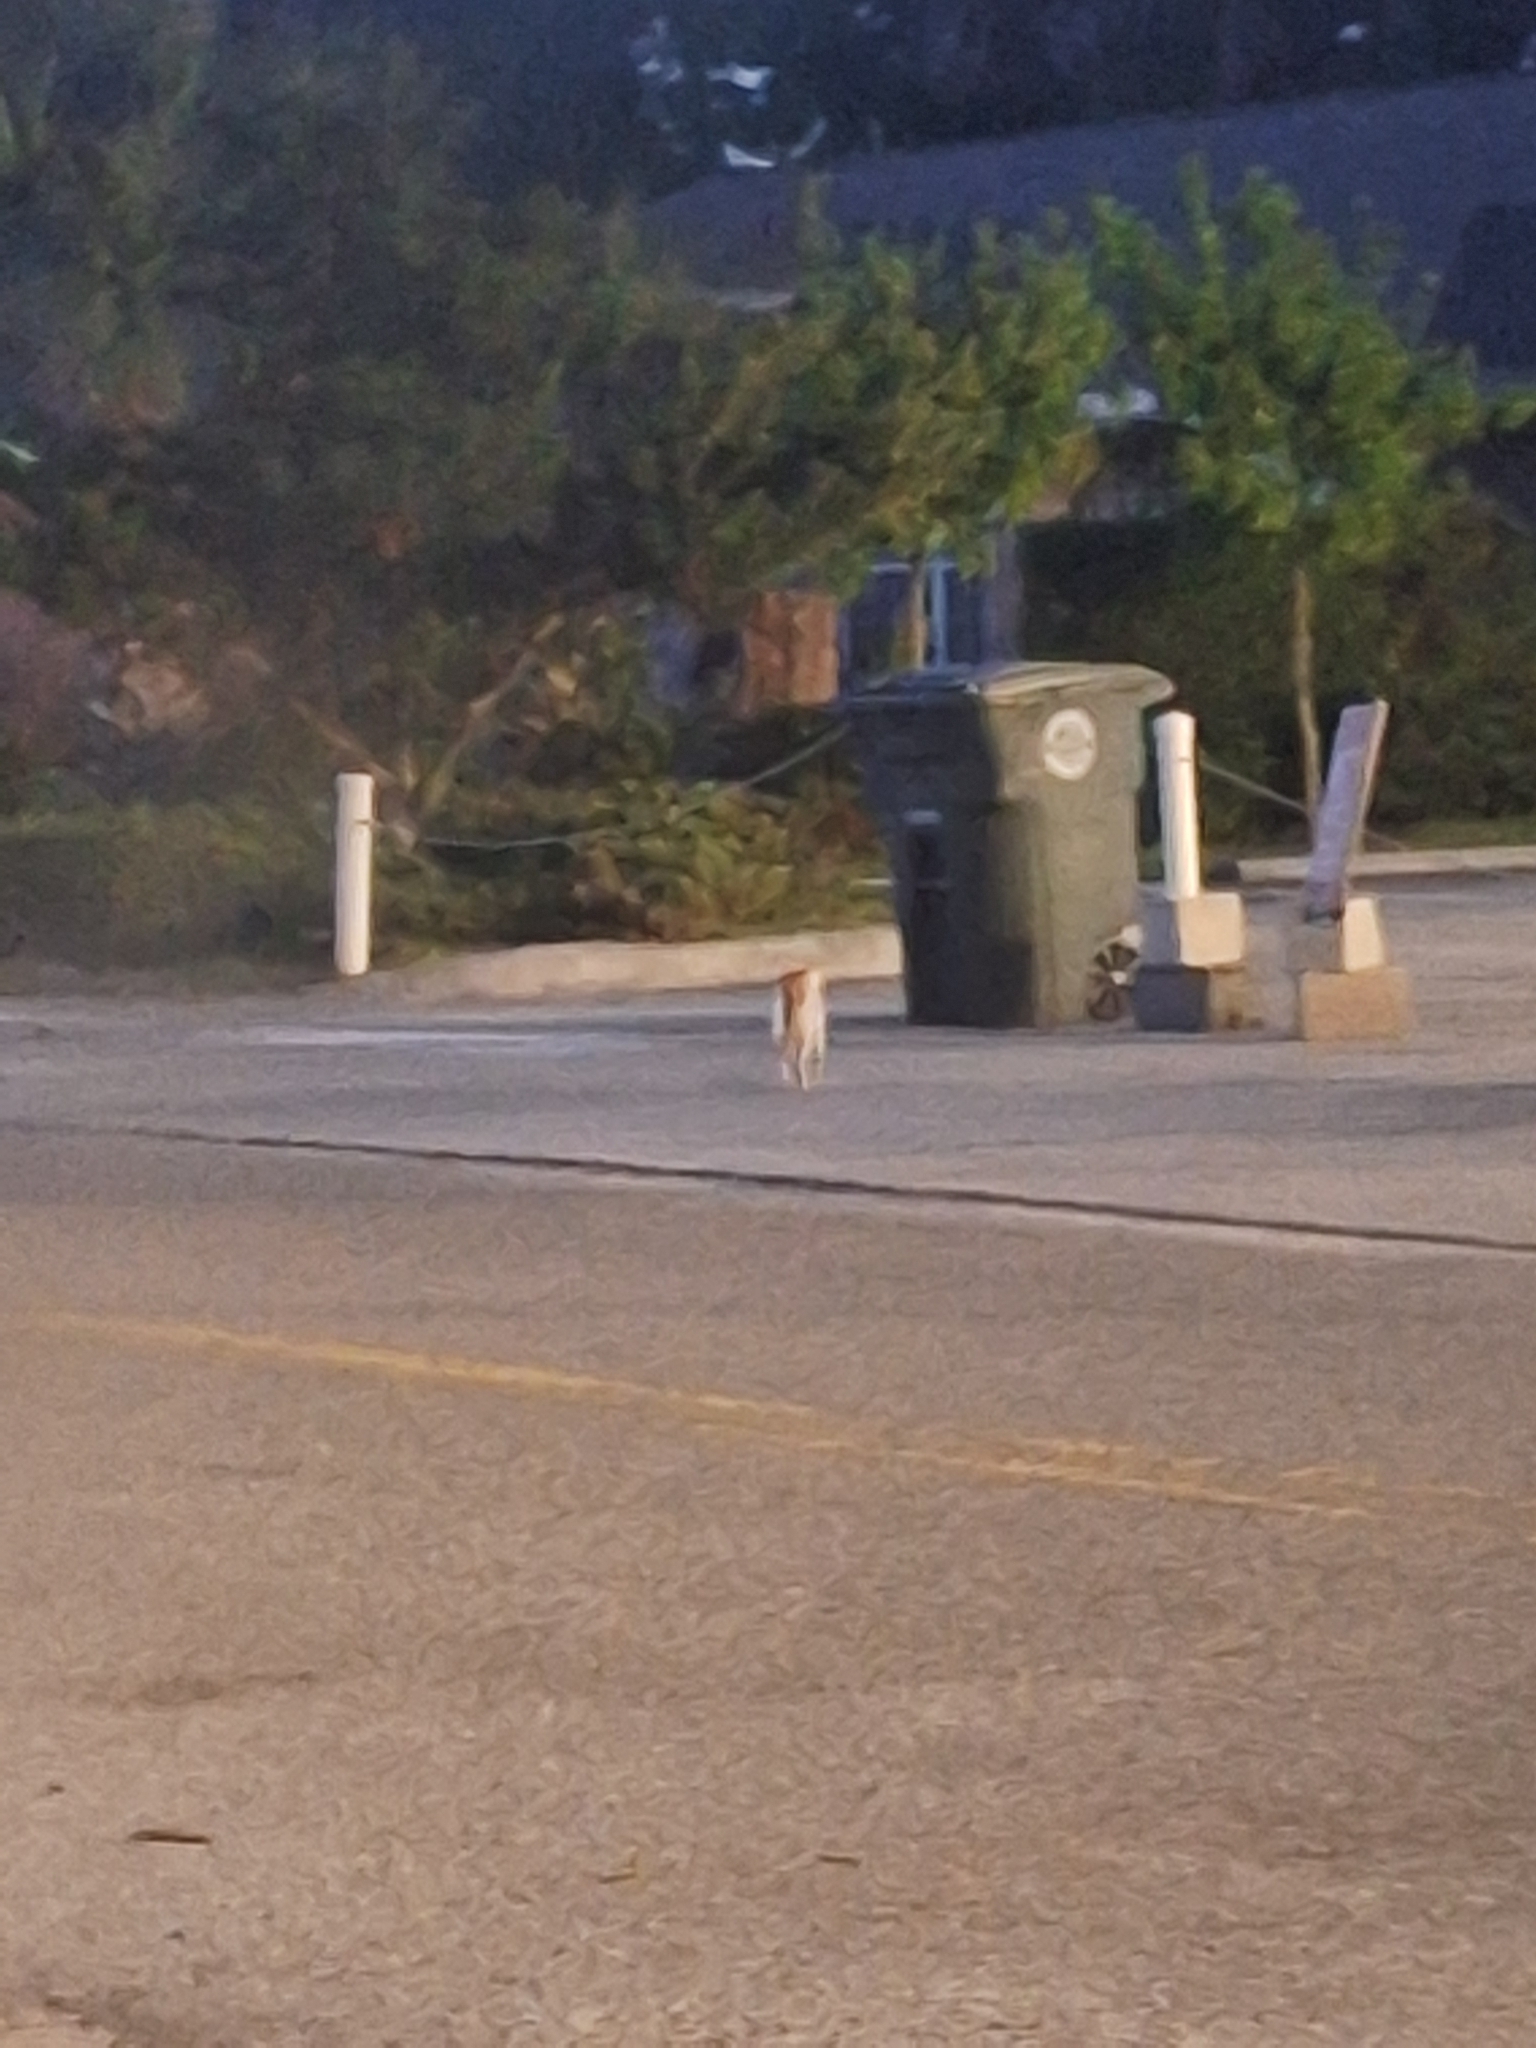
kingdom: Animalia
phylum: Chordata
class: Mammalia
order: Carnivora
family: Felidae
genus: Felis
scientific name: Felis catus
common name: Domestic cat
